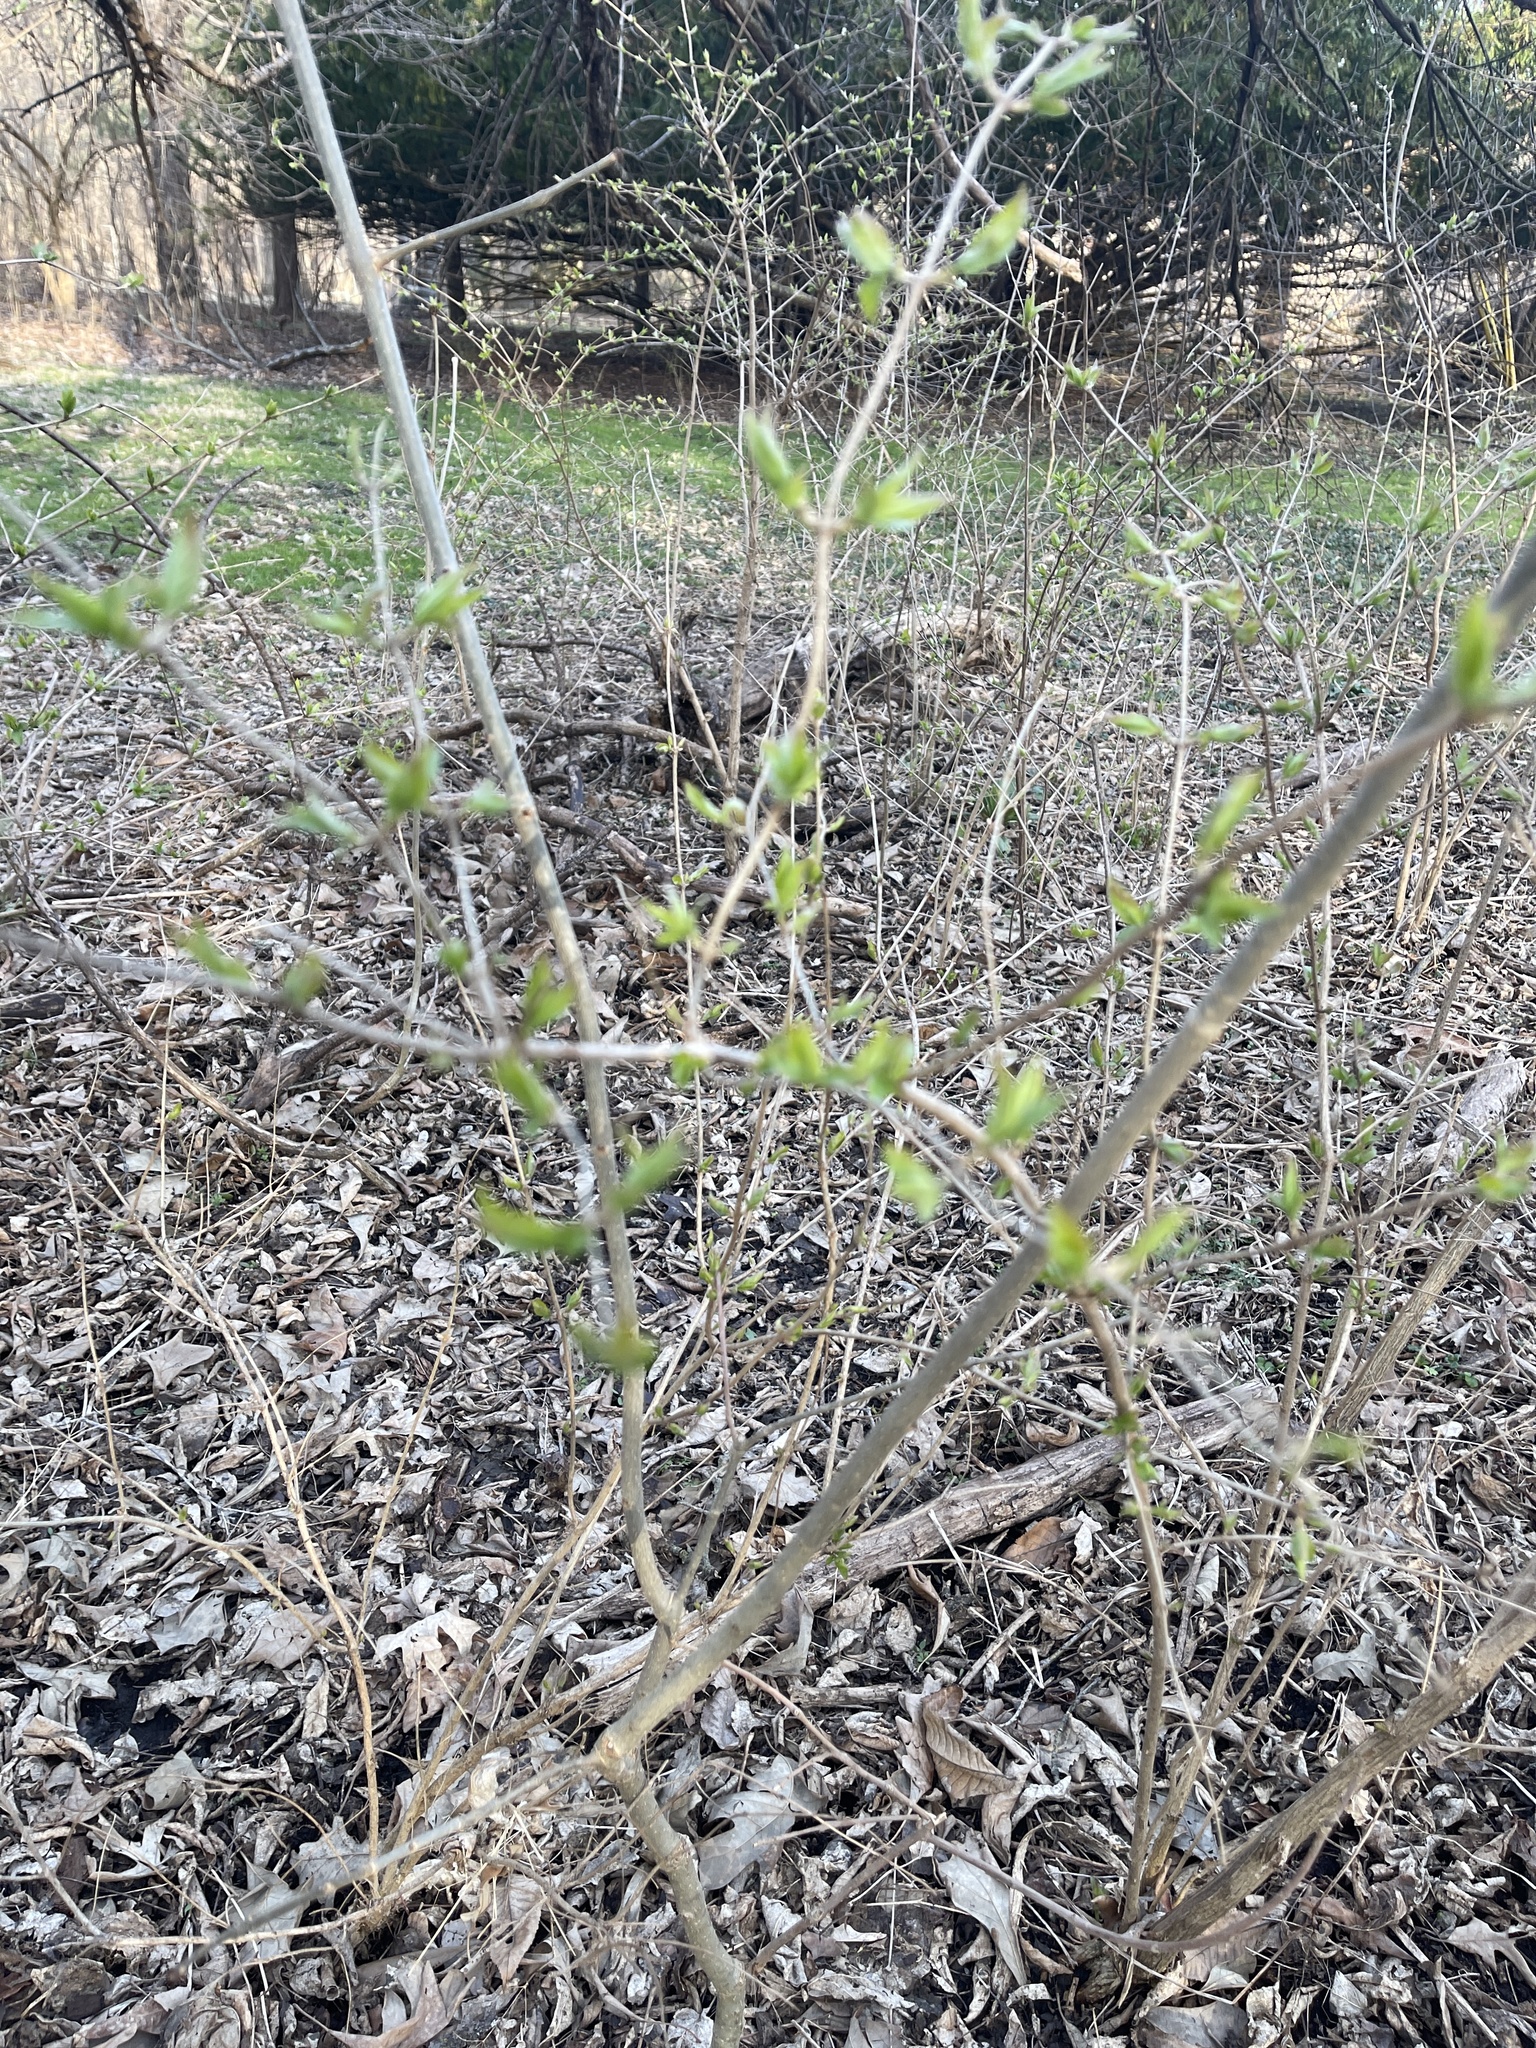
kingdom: Plantae
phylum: Tracheophyta
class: Magnoliopsida
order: Dipsacales
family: Caprifoliaceae
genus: Lonicera
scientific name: Lonicera maackii
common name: Amur honeysuckle
